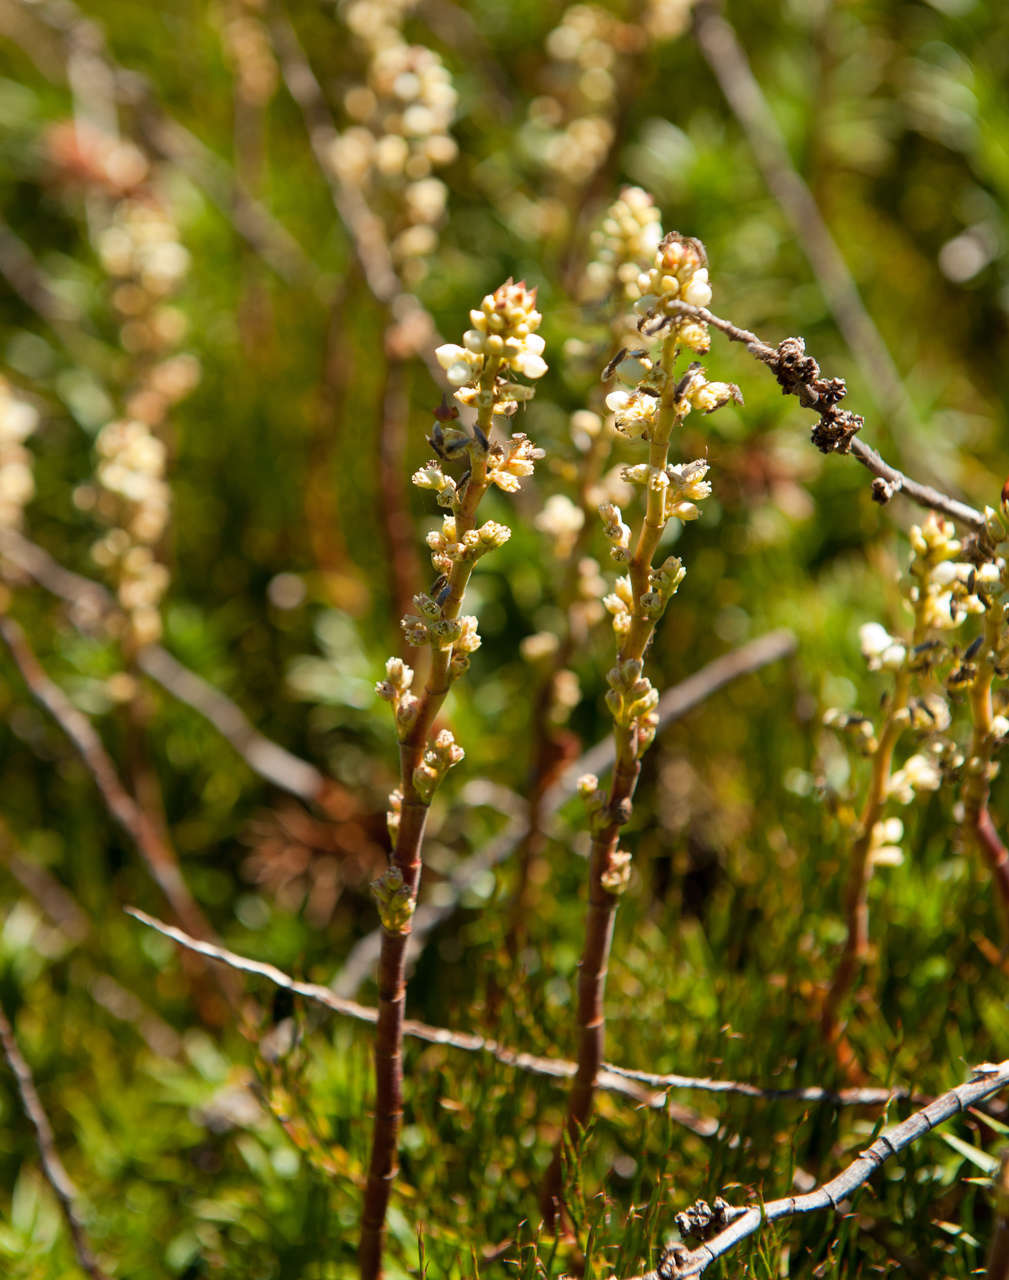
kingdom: Plantae
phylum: Tracheophyta
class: Magnoliopsida
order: Ericales
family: Ericaceae
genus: Dracophyllum
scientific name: Dracophyllum continentis
